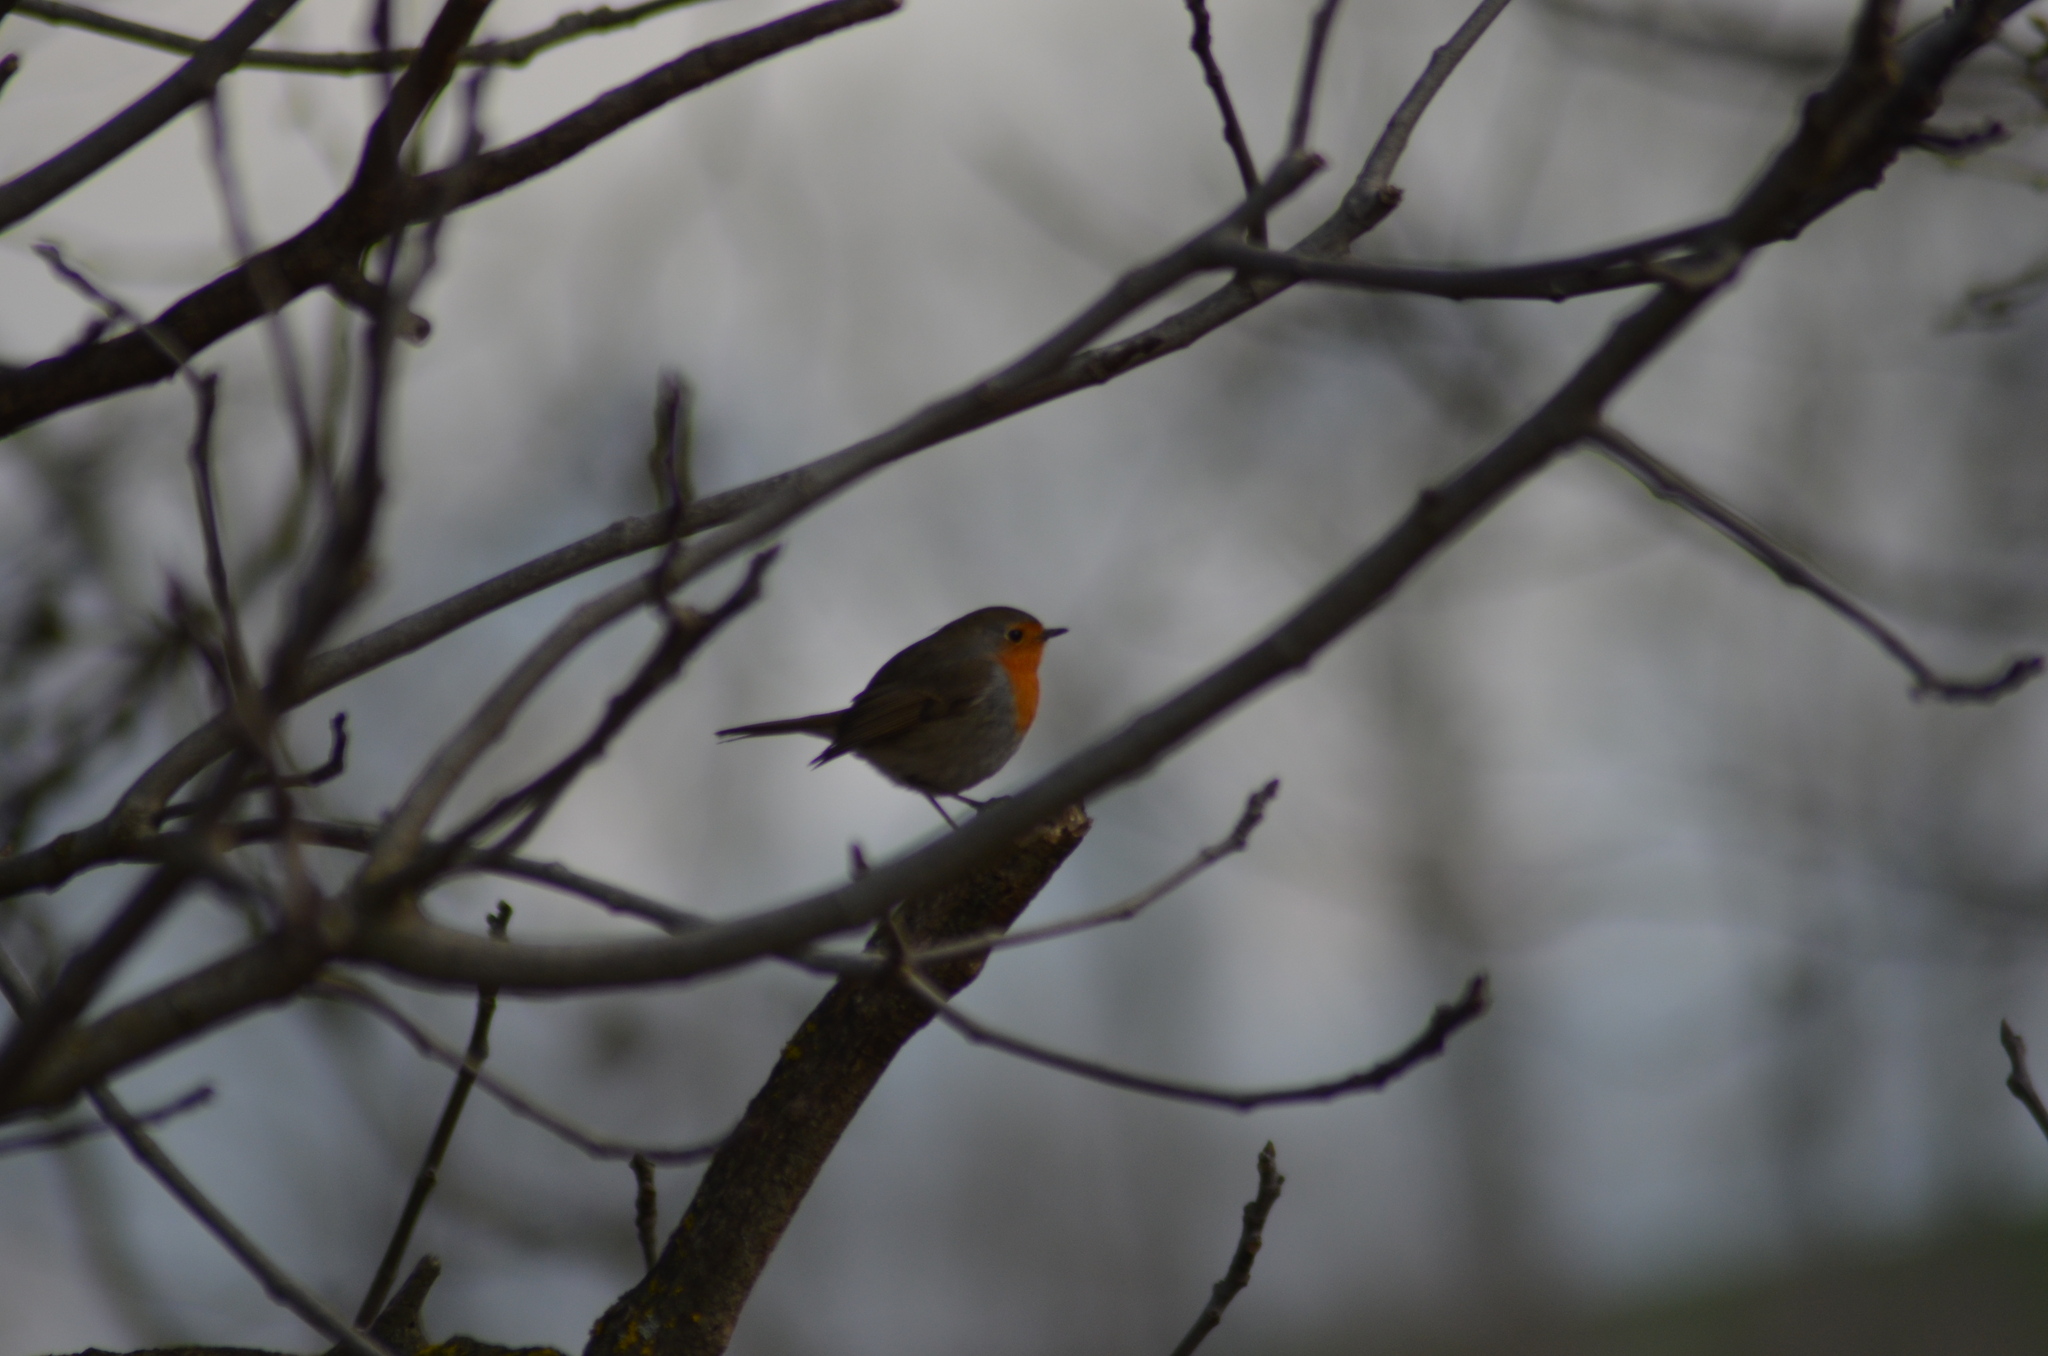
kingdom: Animalia
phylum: Chordata
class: Aves
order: Passeriformes
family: Muscicapidae
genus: Erithacus
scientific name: Erithacus rubecula
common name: European robin
